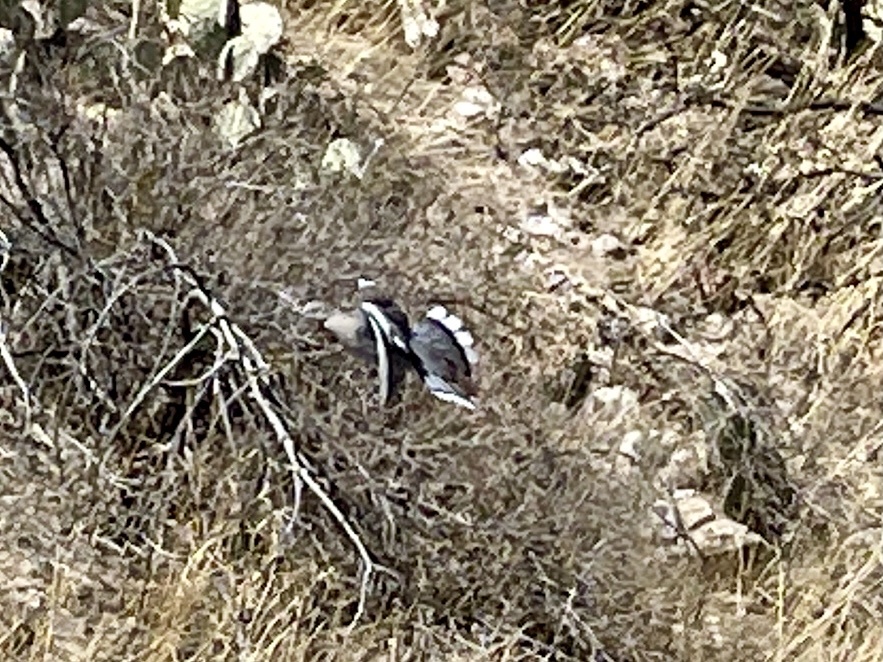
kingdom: Animalia
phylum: Chordata
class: Aves
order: Columbiformes
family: Columbidae
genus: Zenaida
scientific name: Zenaida asiatica
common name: White-winged dove
